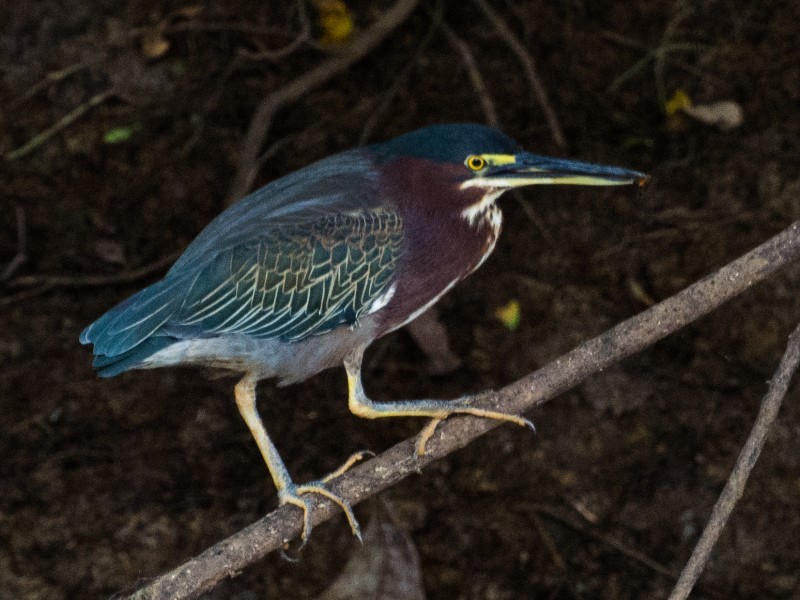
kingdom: Animalia
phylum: Chordata
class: Aves
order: Pelecaniformes
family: Ardeidae
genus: Butorides
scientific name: Butorides virescens
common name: Green heron
